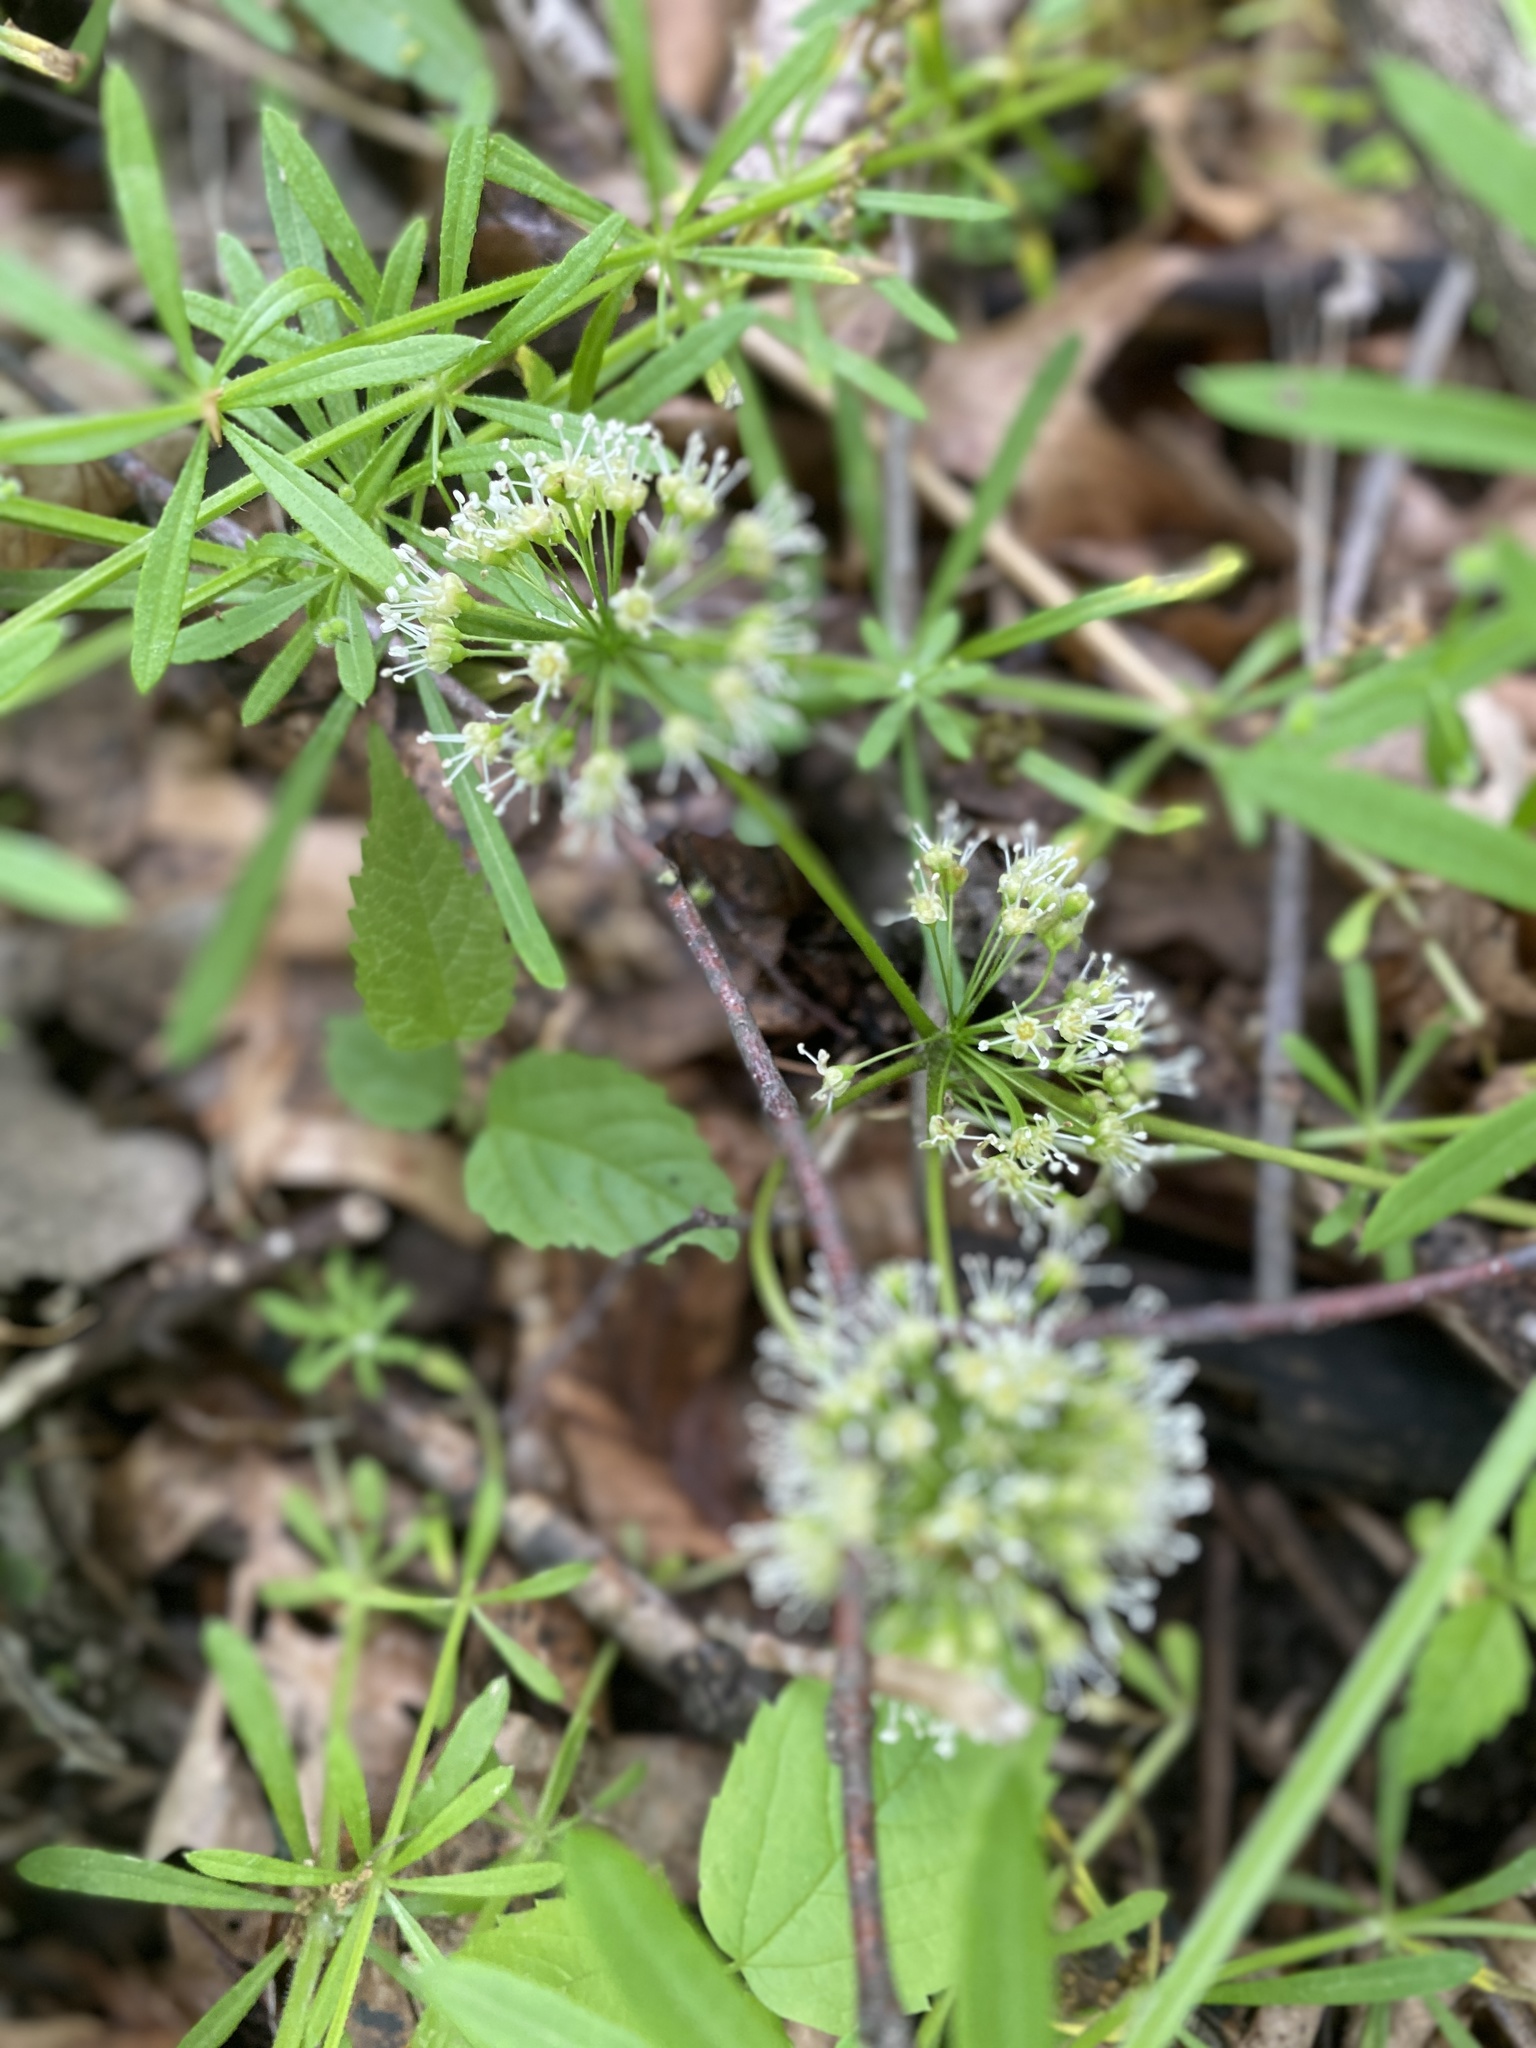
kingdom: Plantae
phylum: Tracheophyta
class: Magnoliopsida
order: Apiales
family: Araliaceae
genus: Aralia
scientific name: Aralia nudicaulis
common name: Wild sarsaparilla
